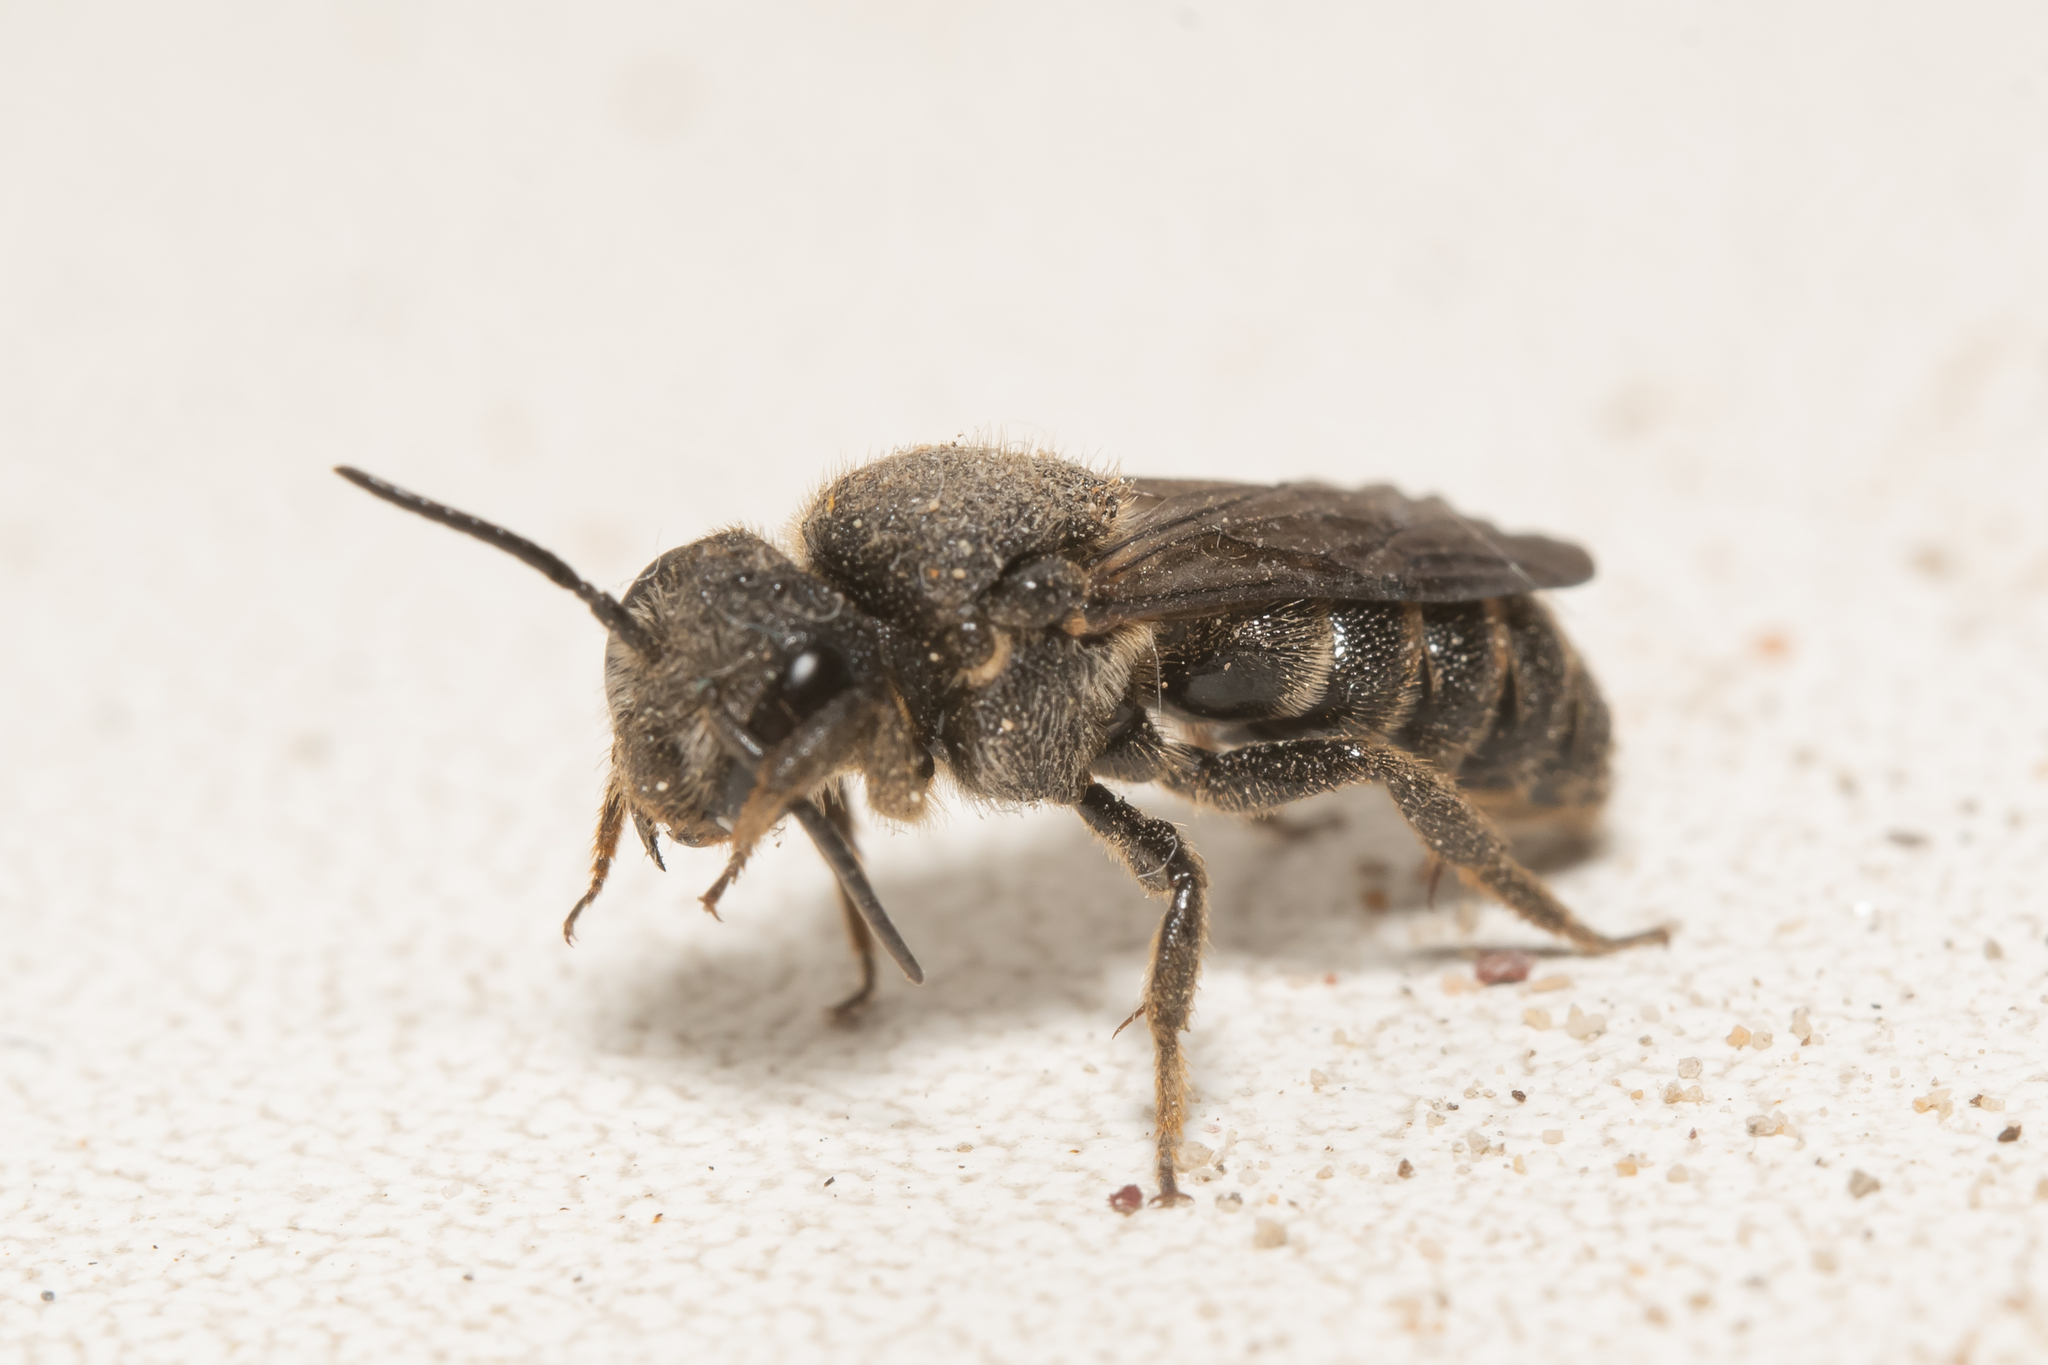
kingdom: Animalia
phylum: Arthropoda
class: Insecta
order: Hymenoptera
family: Megachilidae
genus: Stelis
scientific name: Stelis punctulatissima
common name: Banded dark bee
